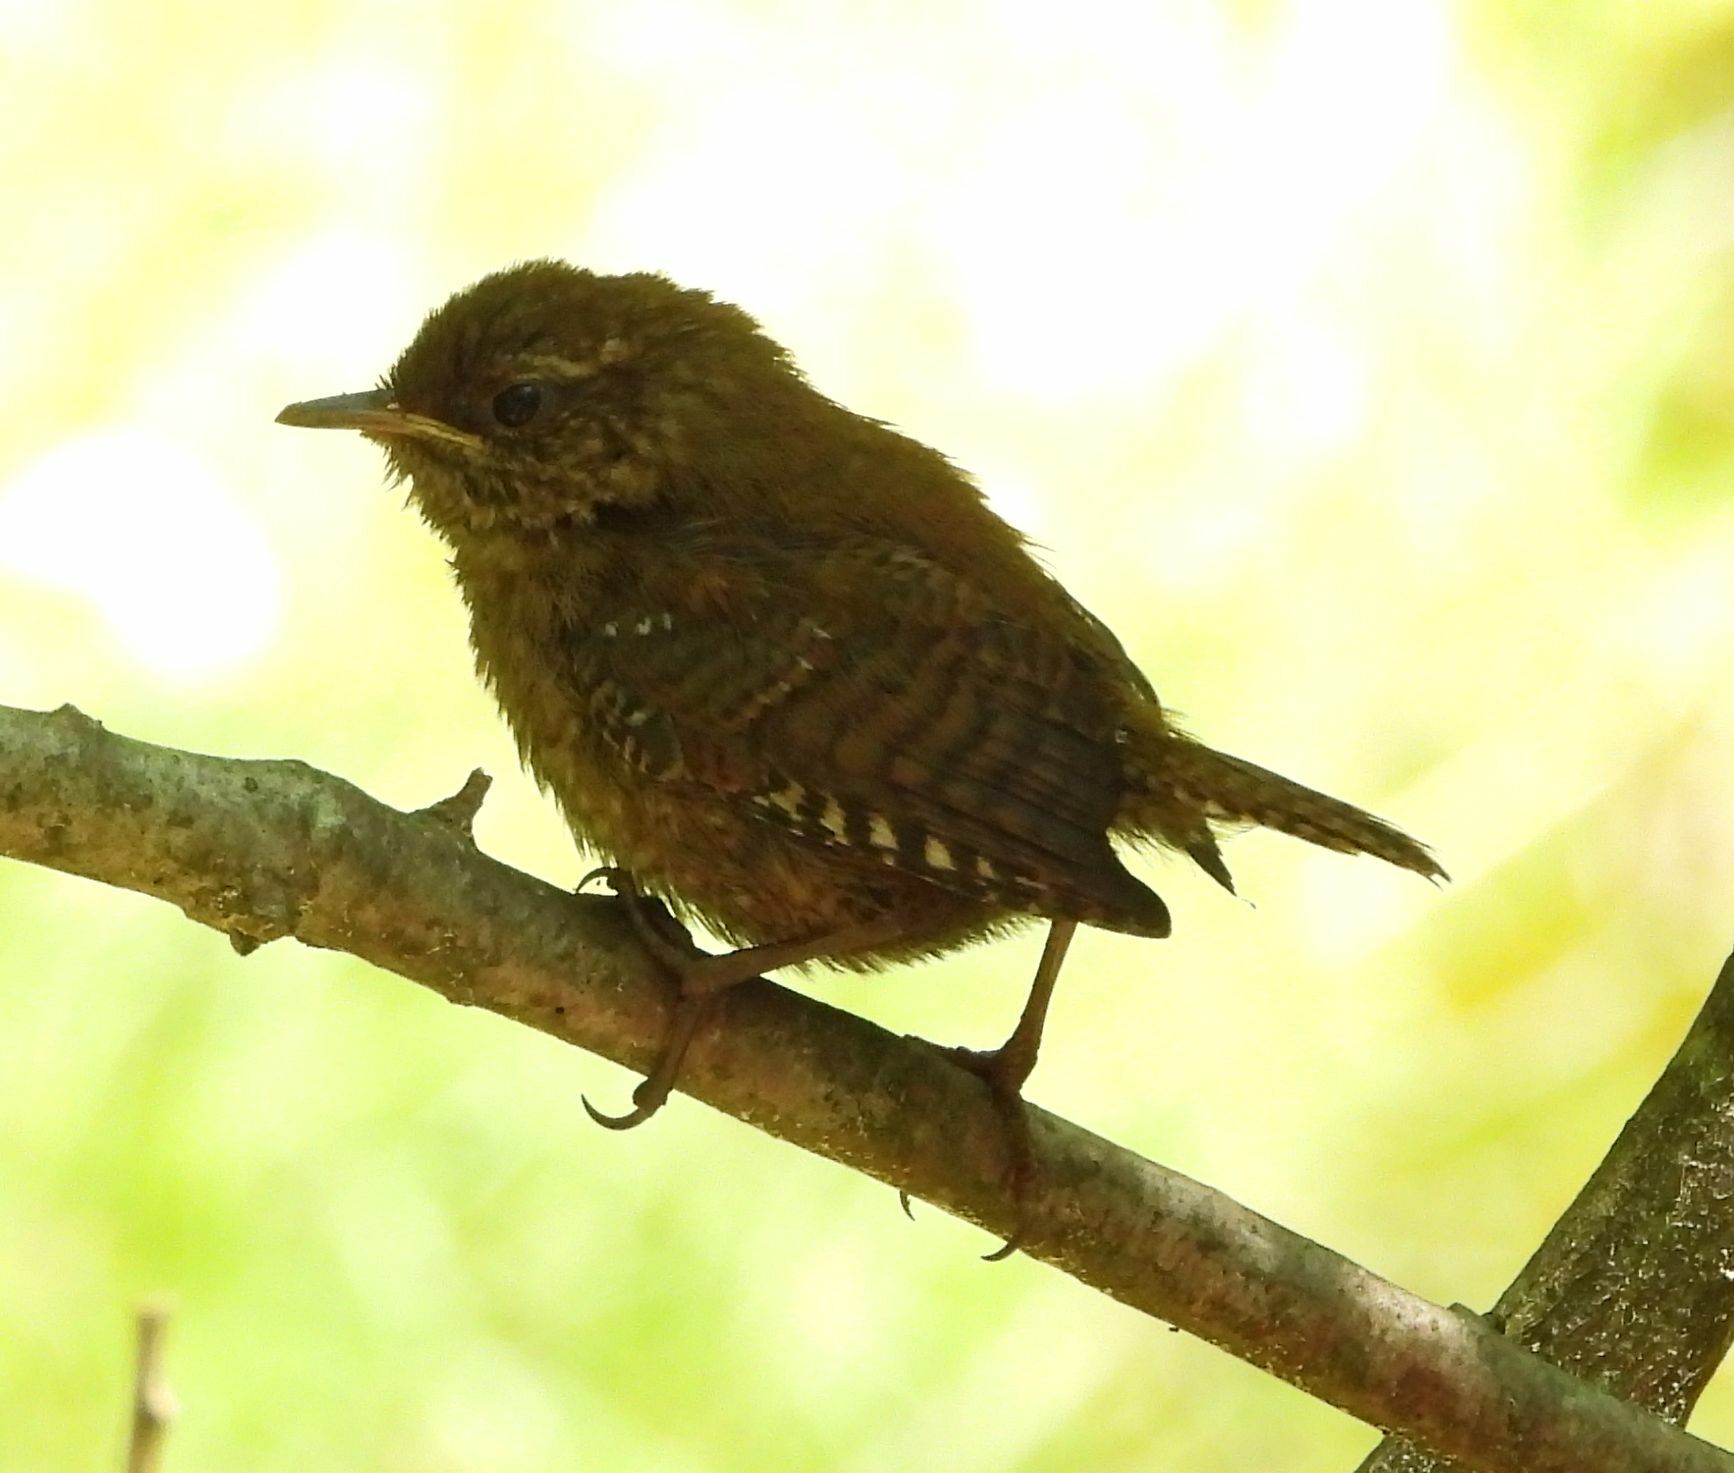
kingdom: Animalia
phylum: Chordata
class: Aves
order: Passeriformes
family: Troglodytidae
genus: Troglodytes
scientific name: Troglodytes hiemalis
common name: Winter wren
